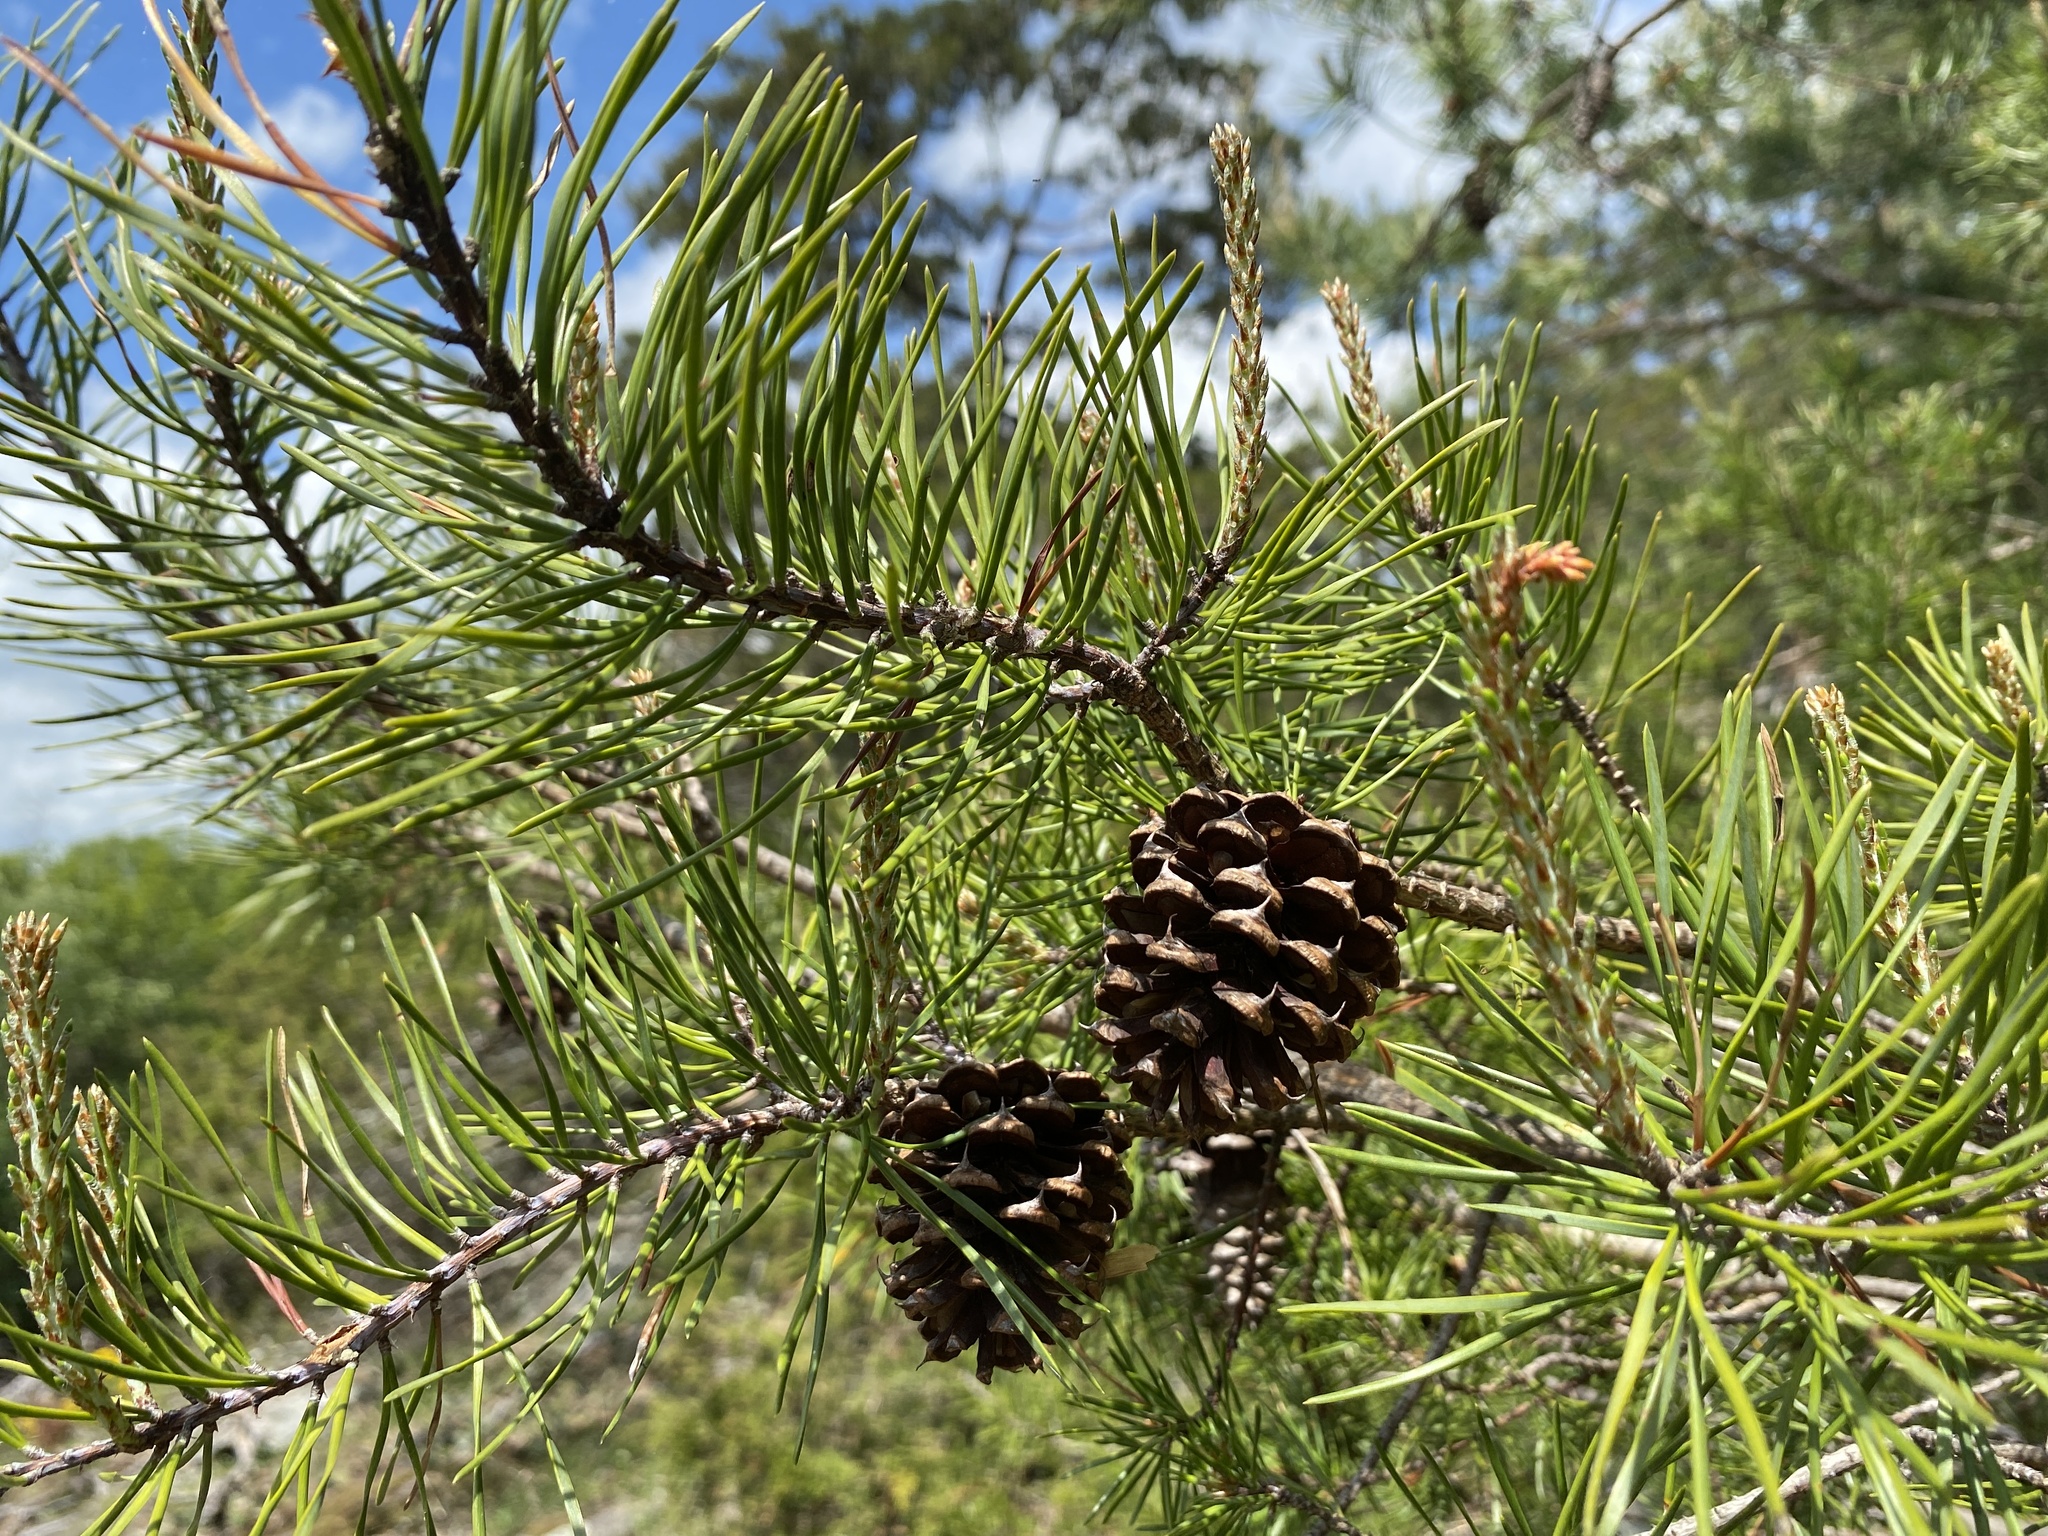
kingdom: Plantae
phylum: Tracheophyta
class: Pinopsida
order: Pinales
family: Pinaceae
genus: Pinus
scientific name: Pinus virginiana
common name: Scrub pine
